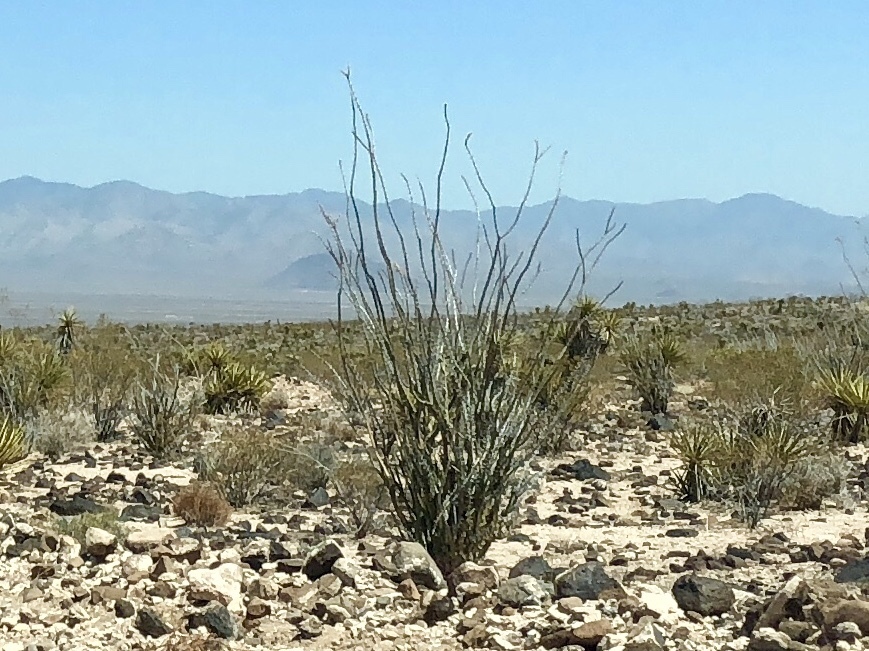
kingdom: Plantae
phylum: Tracheophyta
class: Magnoliopsida
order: Ericales
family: Fouquieriaceae
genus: Fouquieria
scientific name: Fouquieria splendens
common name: Vine-cactus
